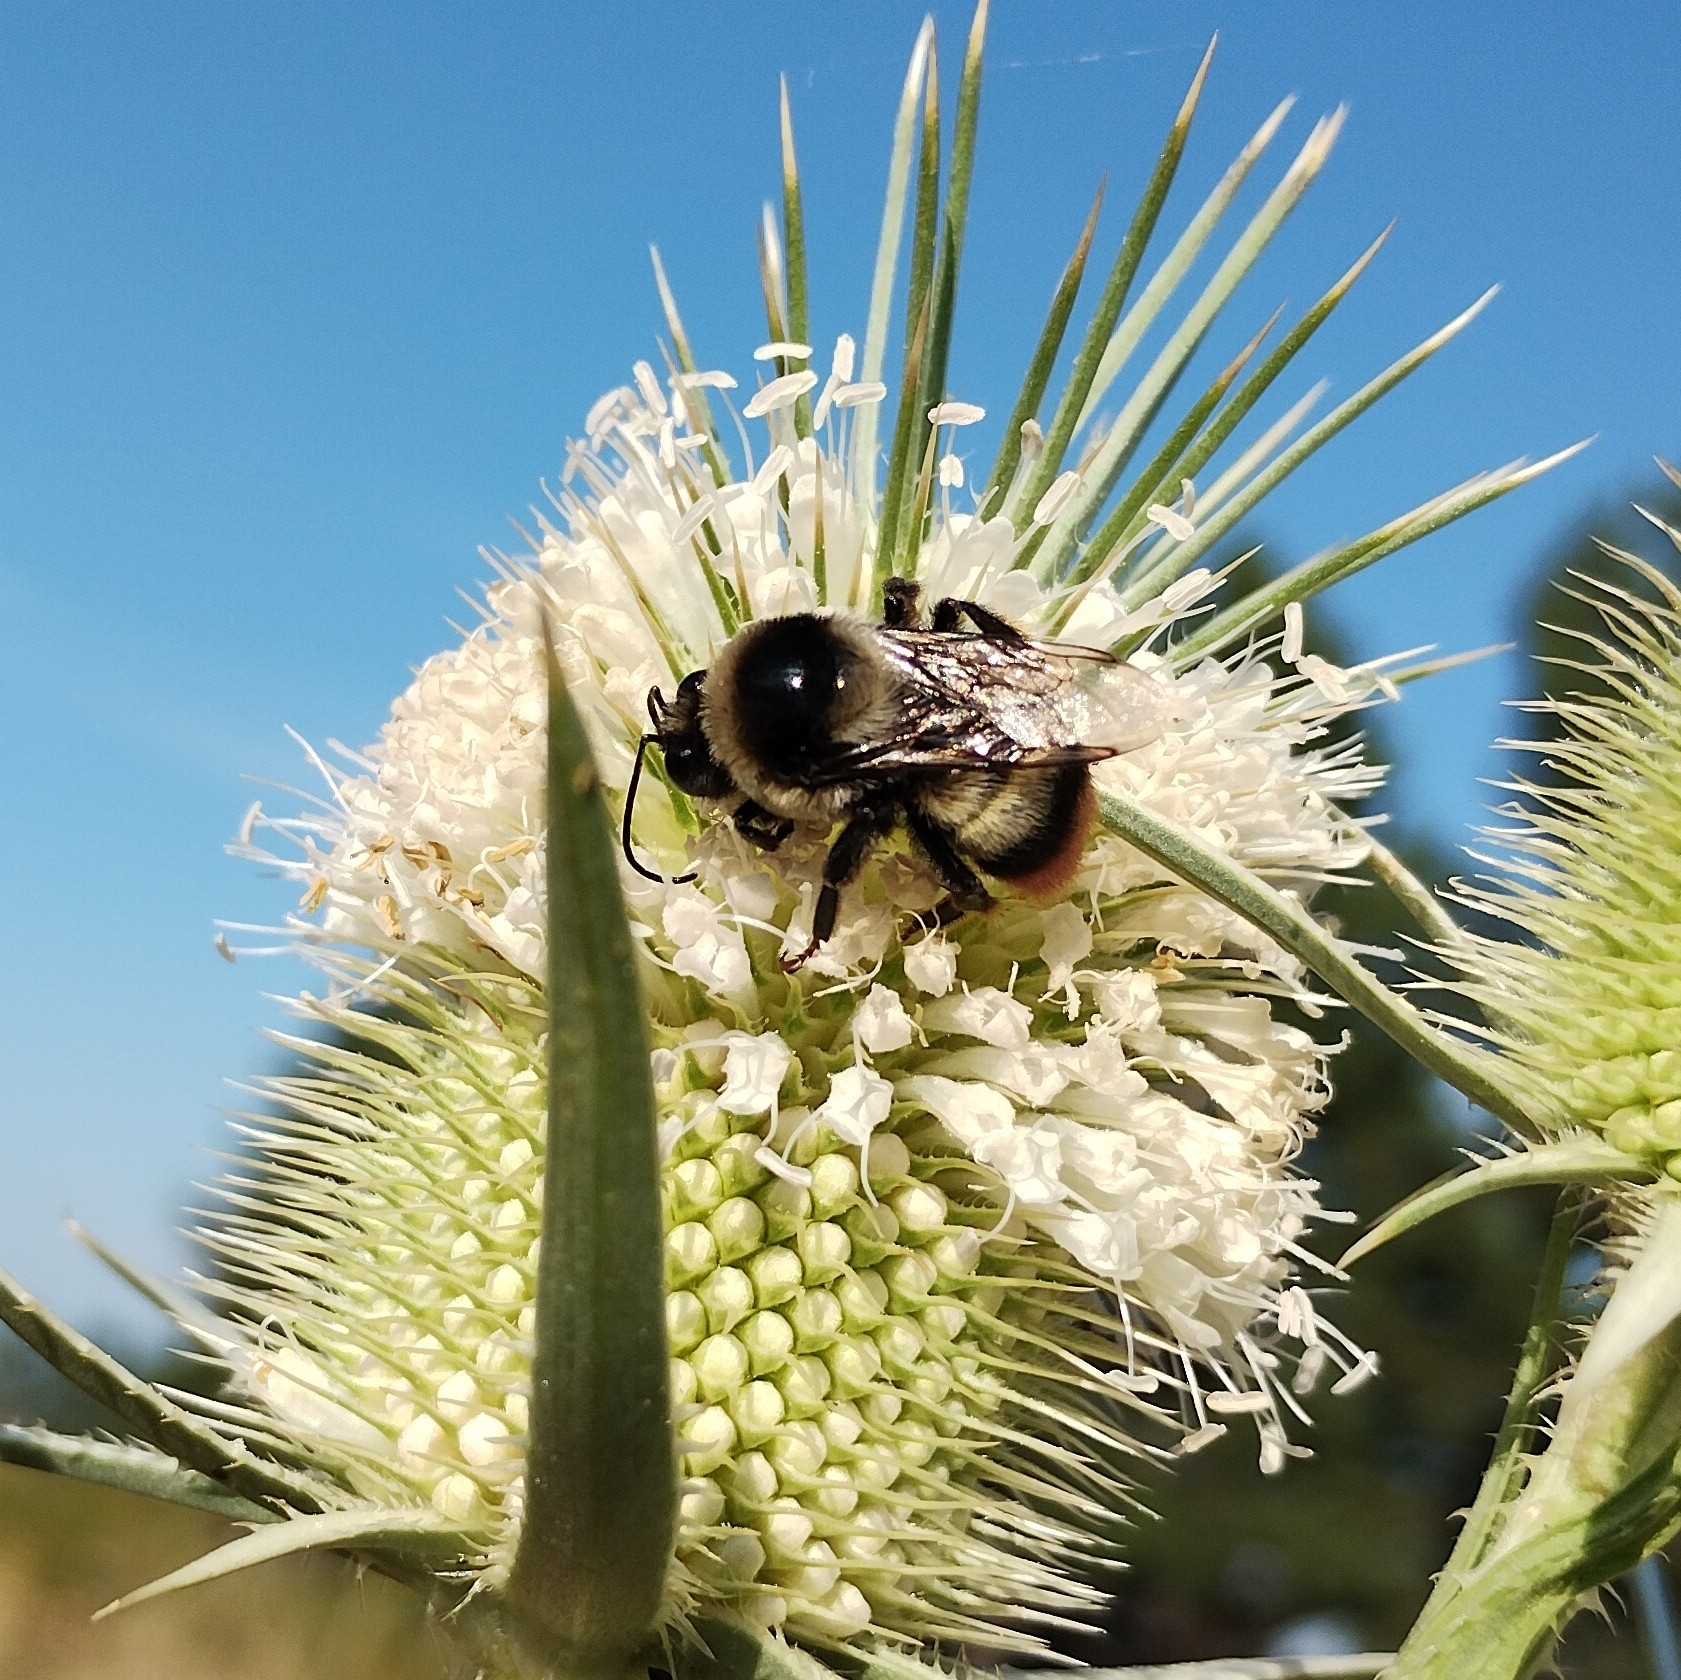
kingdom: Animalia
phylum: Arthropoda
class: Insecta
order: Hymenoptera
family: Apidae
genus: Bombus
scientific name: Bombus niveatus
